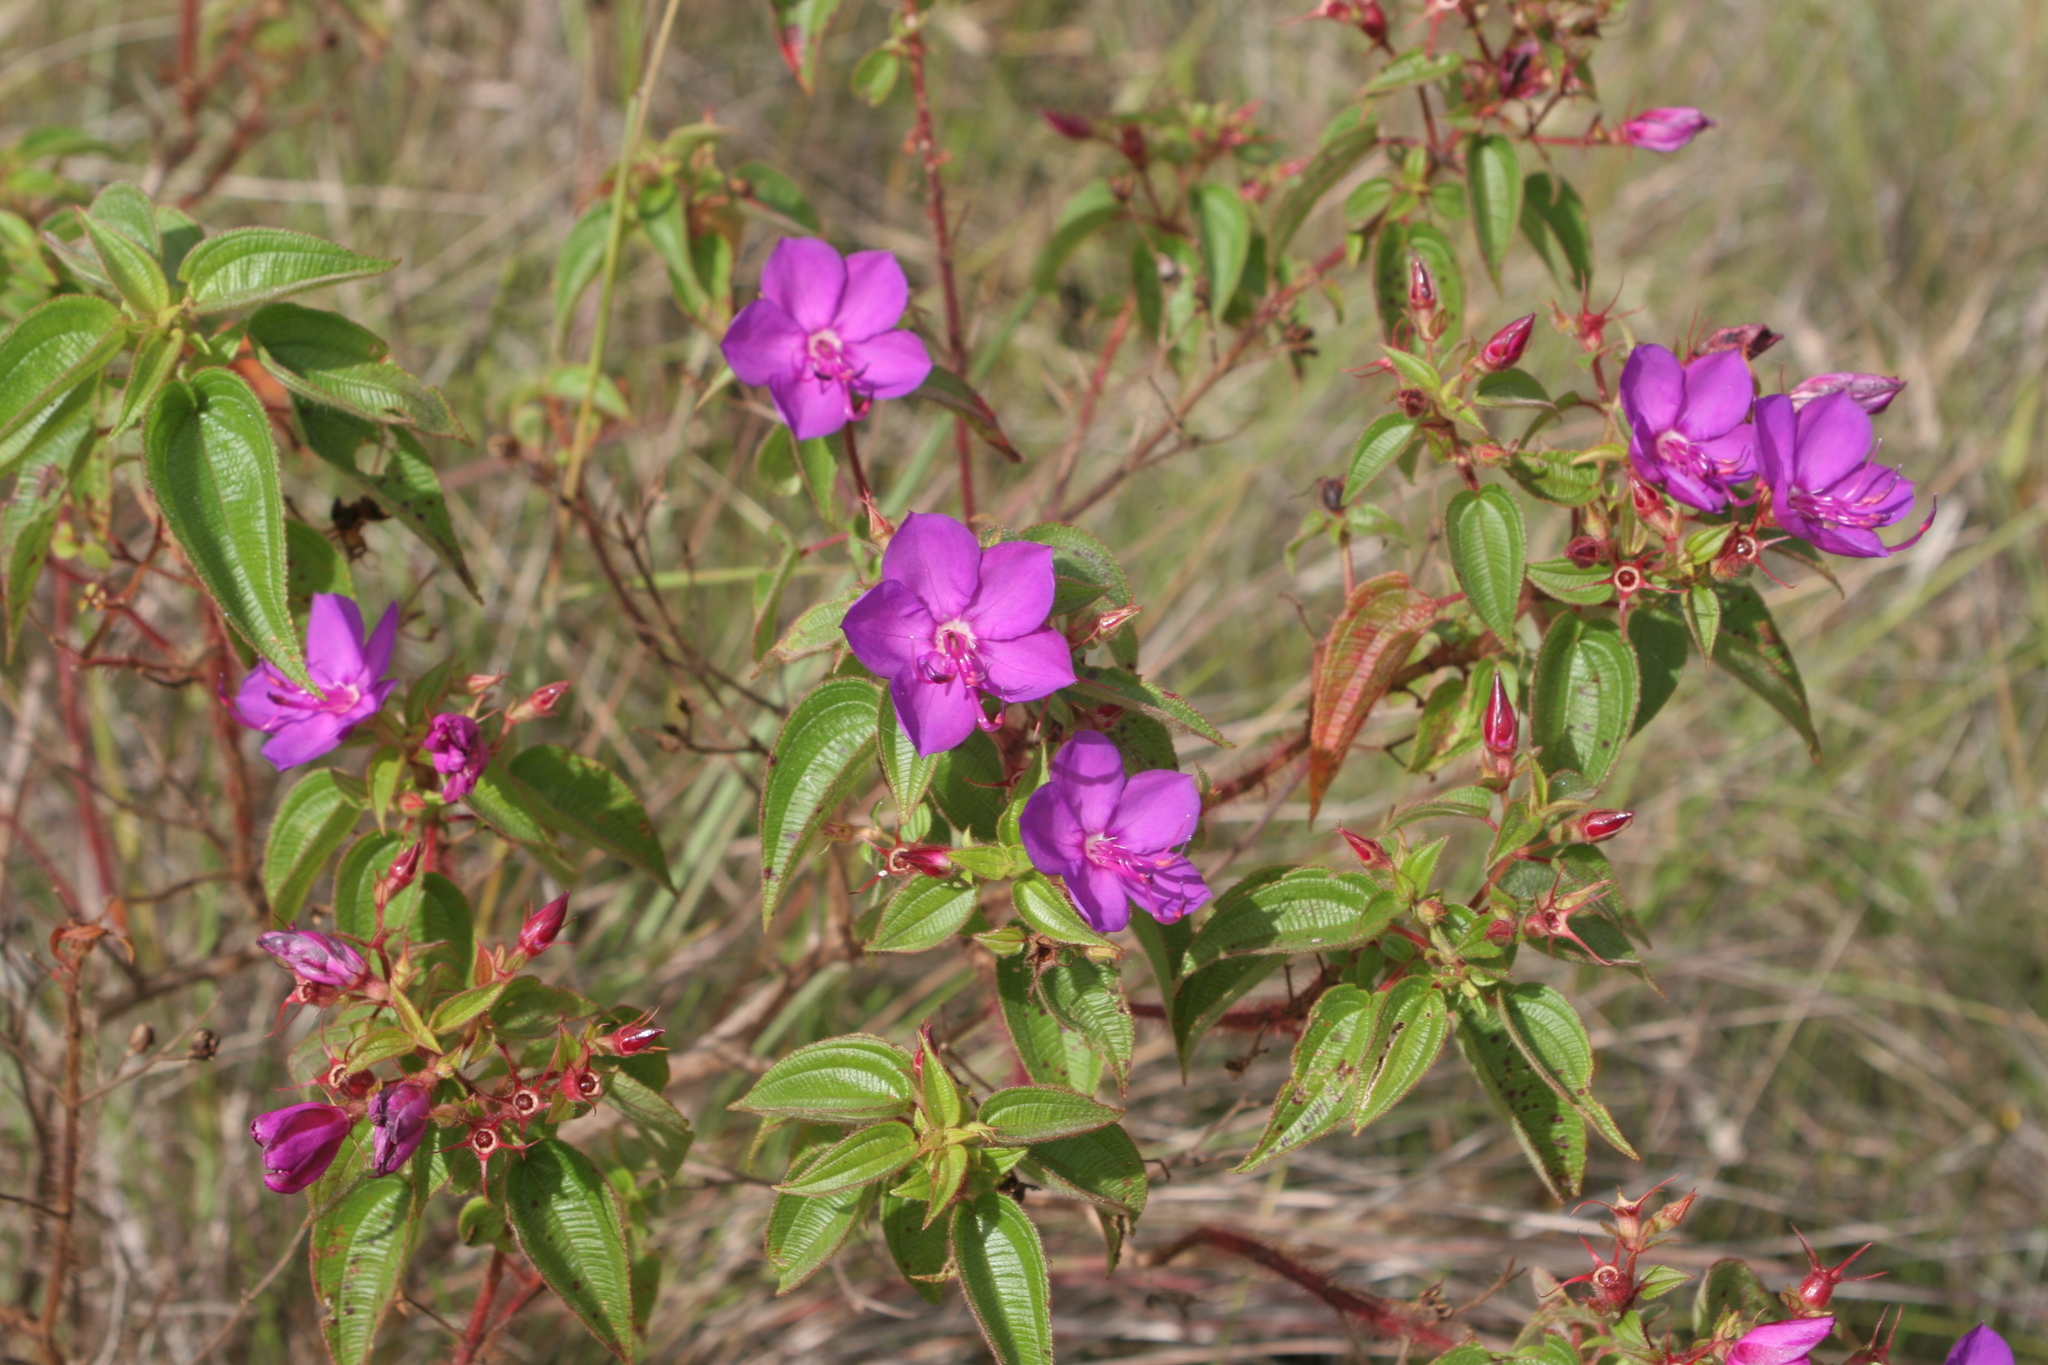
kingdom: Plantae
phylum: Tracheophyta
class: Magnoliopsida
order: Myrtales
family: Melastomataceae
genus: Rhynchanthera
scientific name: Rhynchanthera grandiflora
